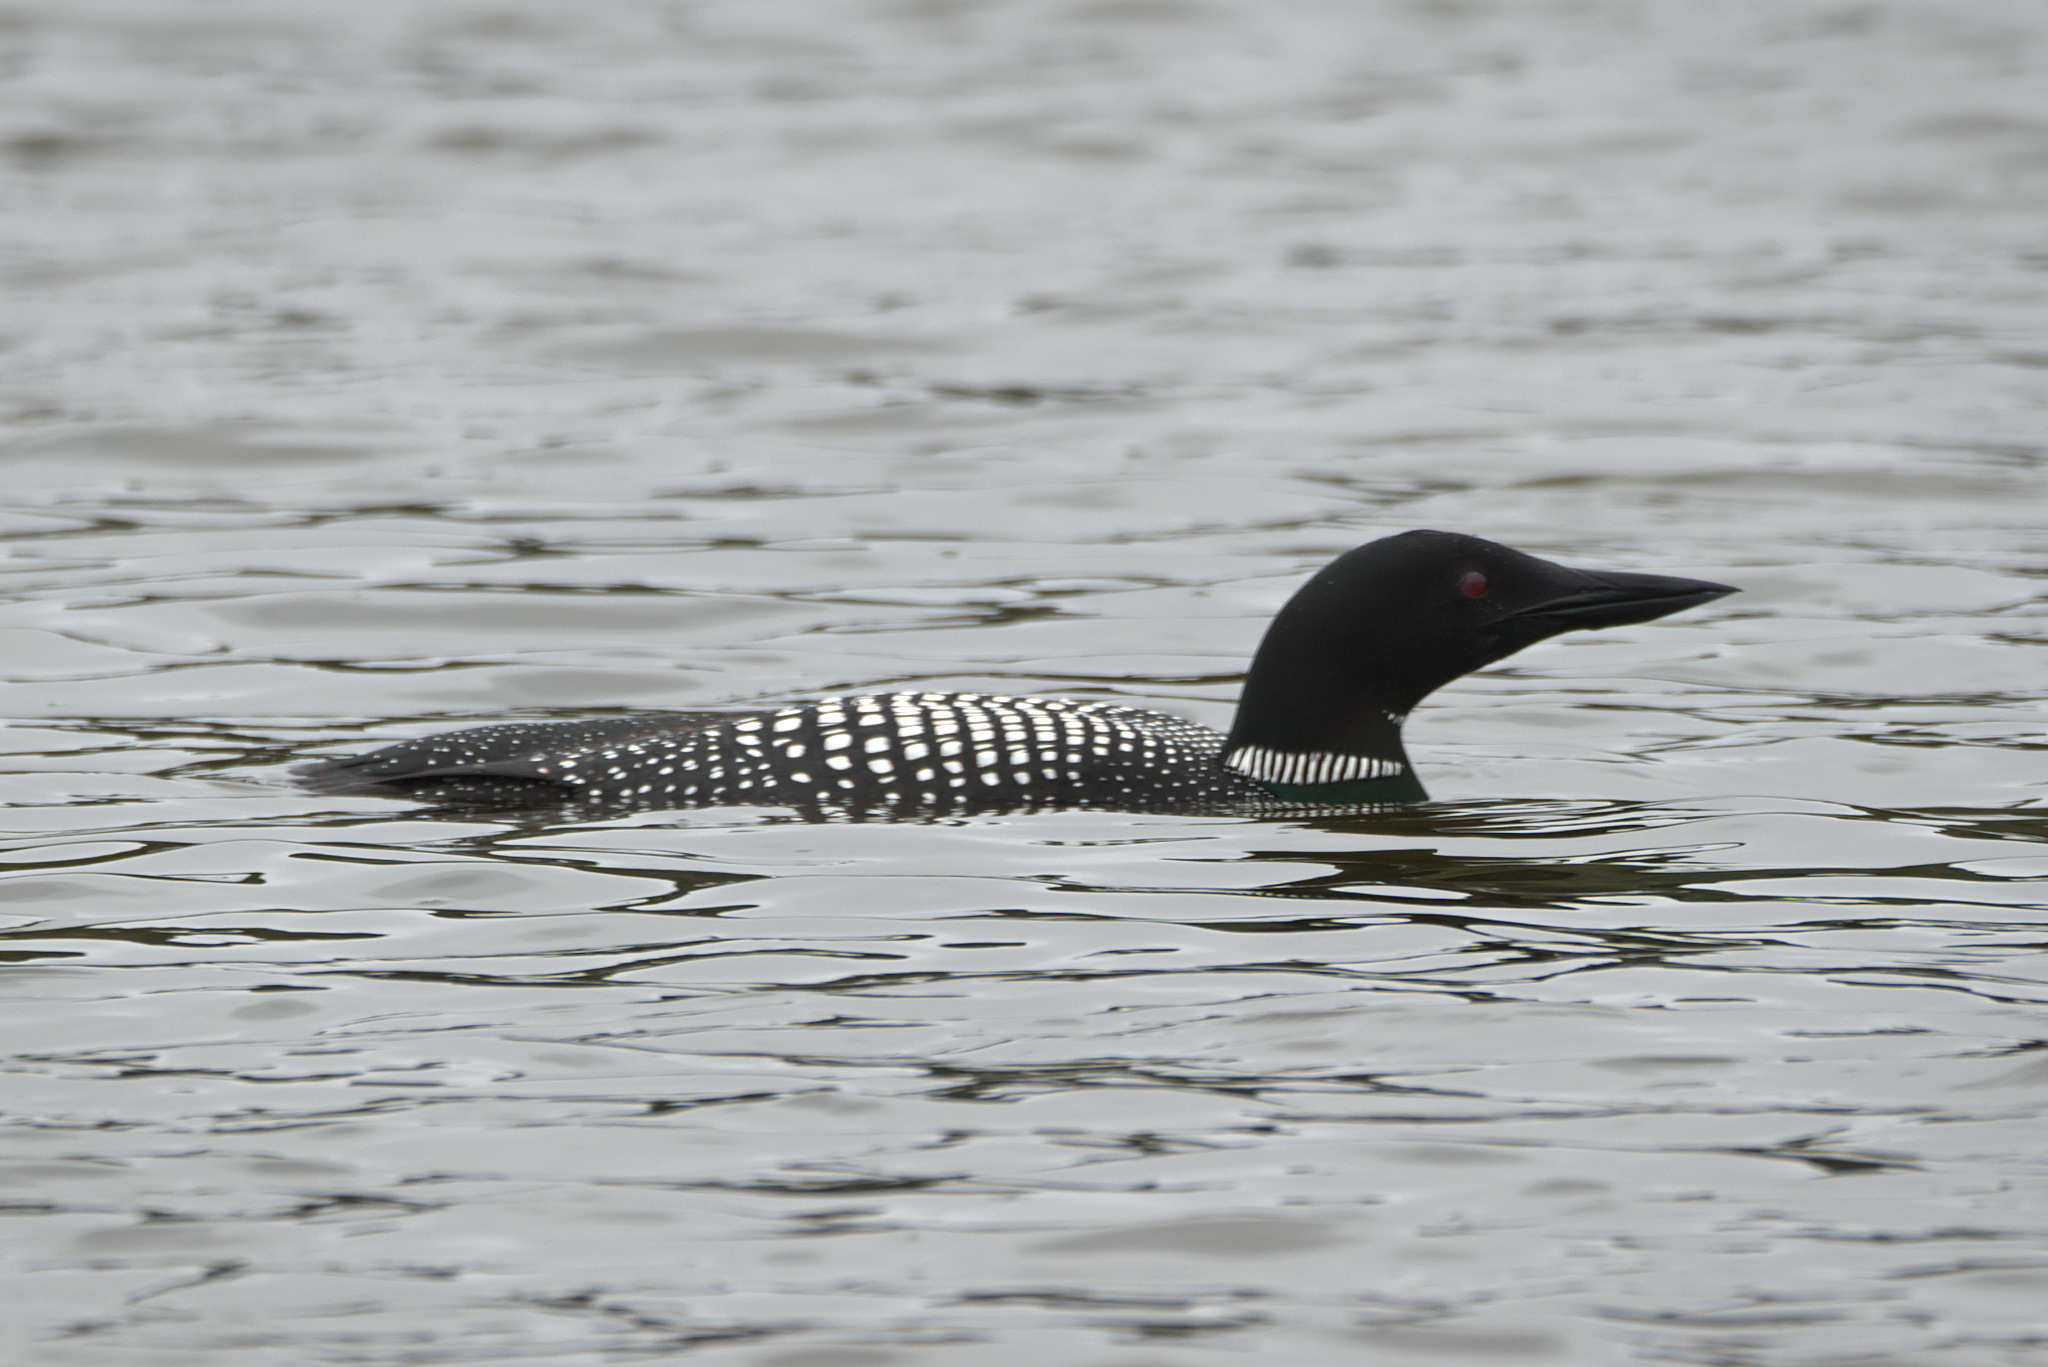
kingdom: Animalia
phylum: Chordata
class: Aves
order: Gaviiformes
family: Gaviidae
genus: Gavia
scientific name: Gavia immer
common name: Common loon
